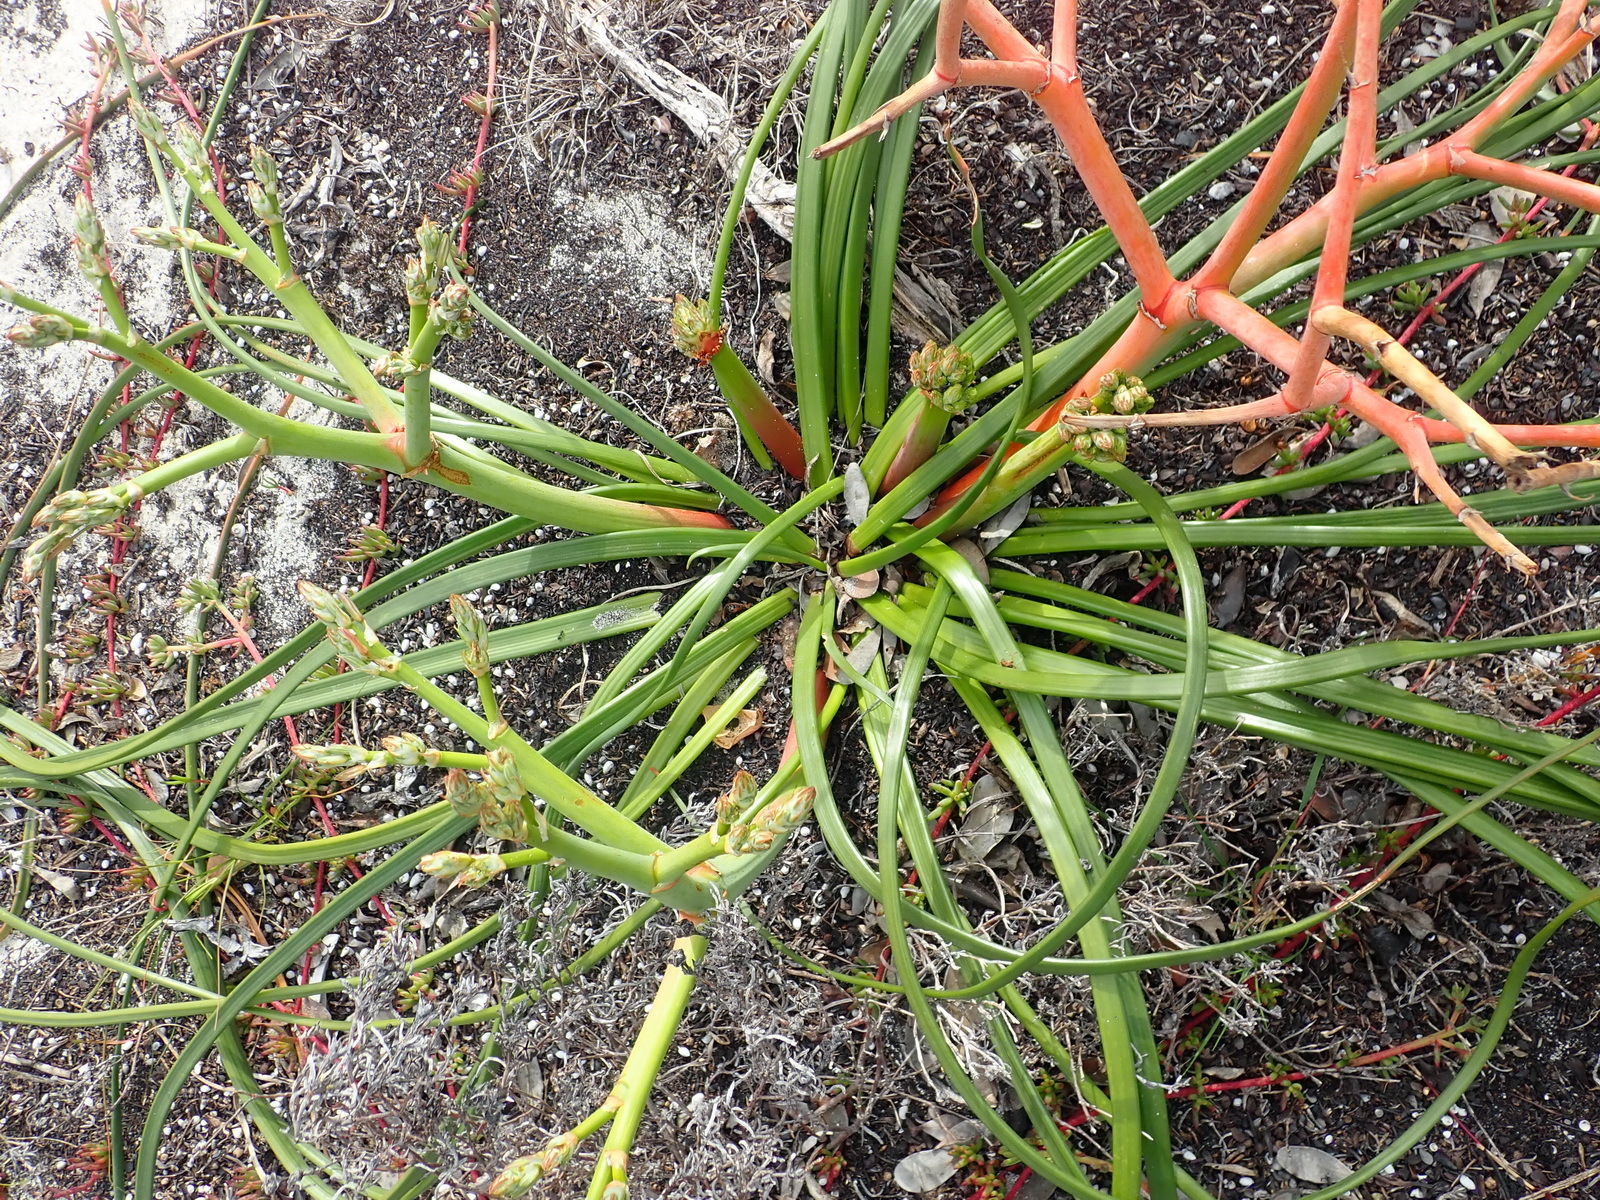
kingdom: Plantae
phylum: Tracheophyta
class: Liliopsida
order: Asparagales
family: Asphodelaceae
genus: Trachyandra
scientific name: Trachyandra divaricata
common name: Dune onionweed
